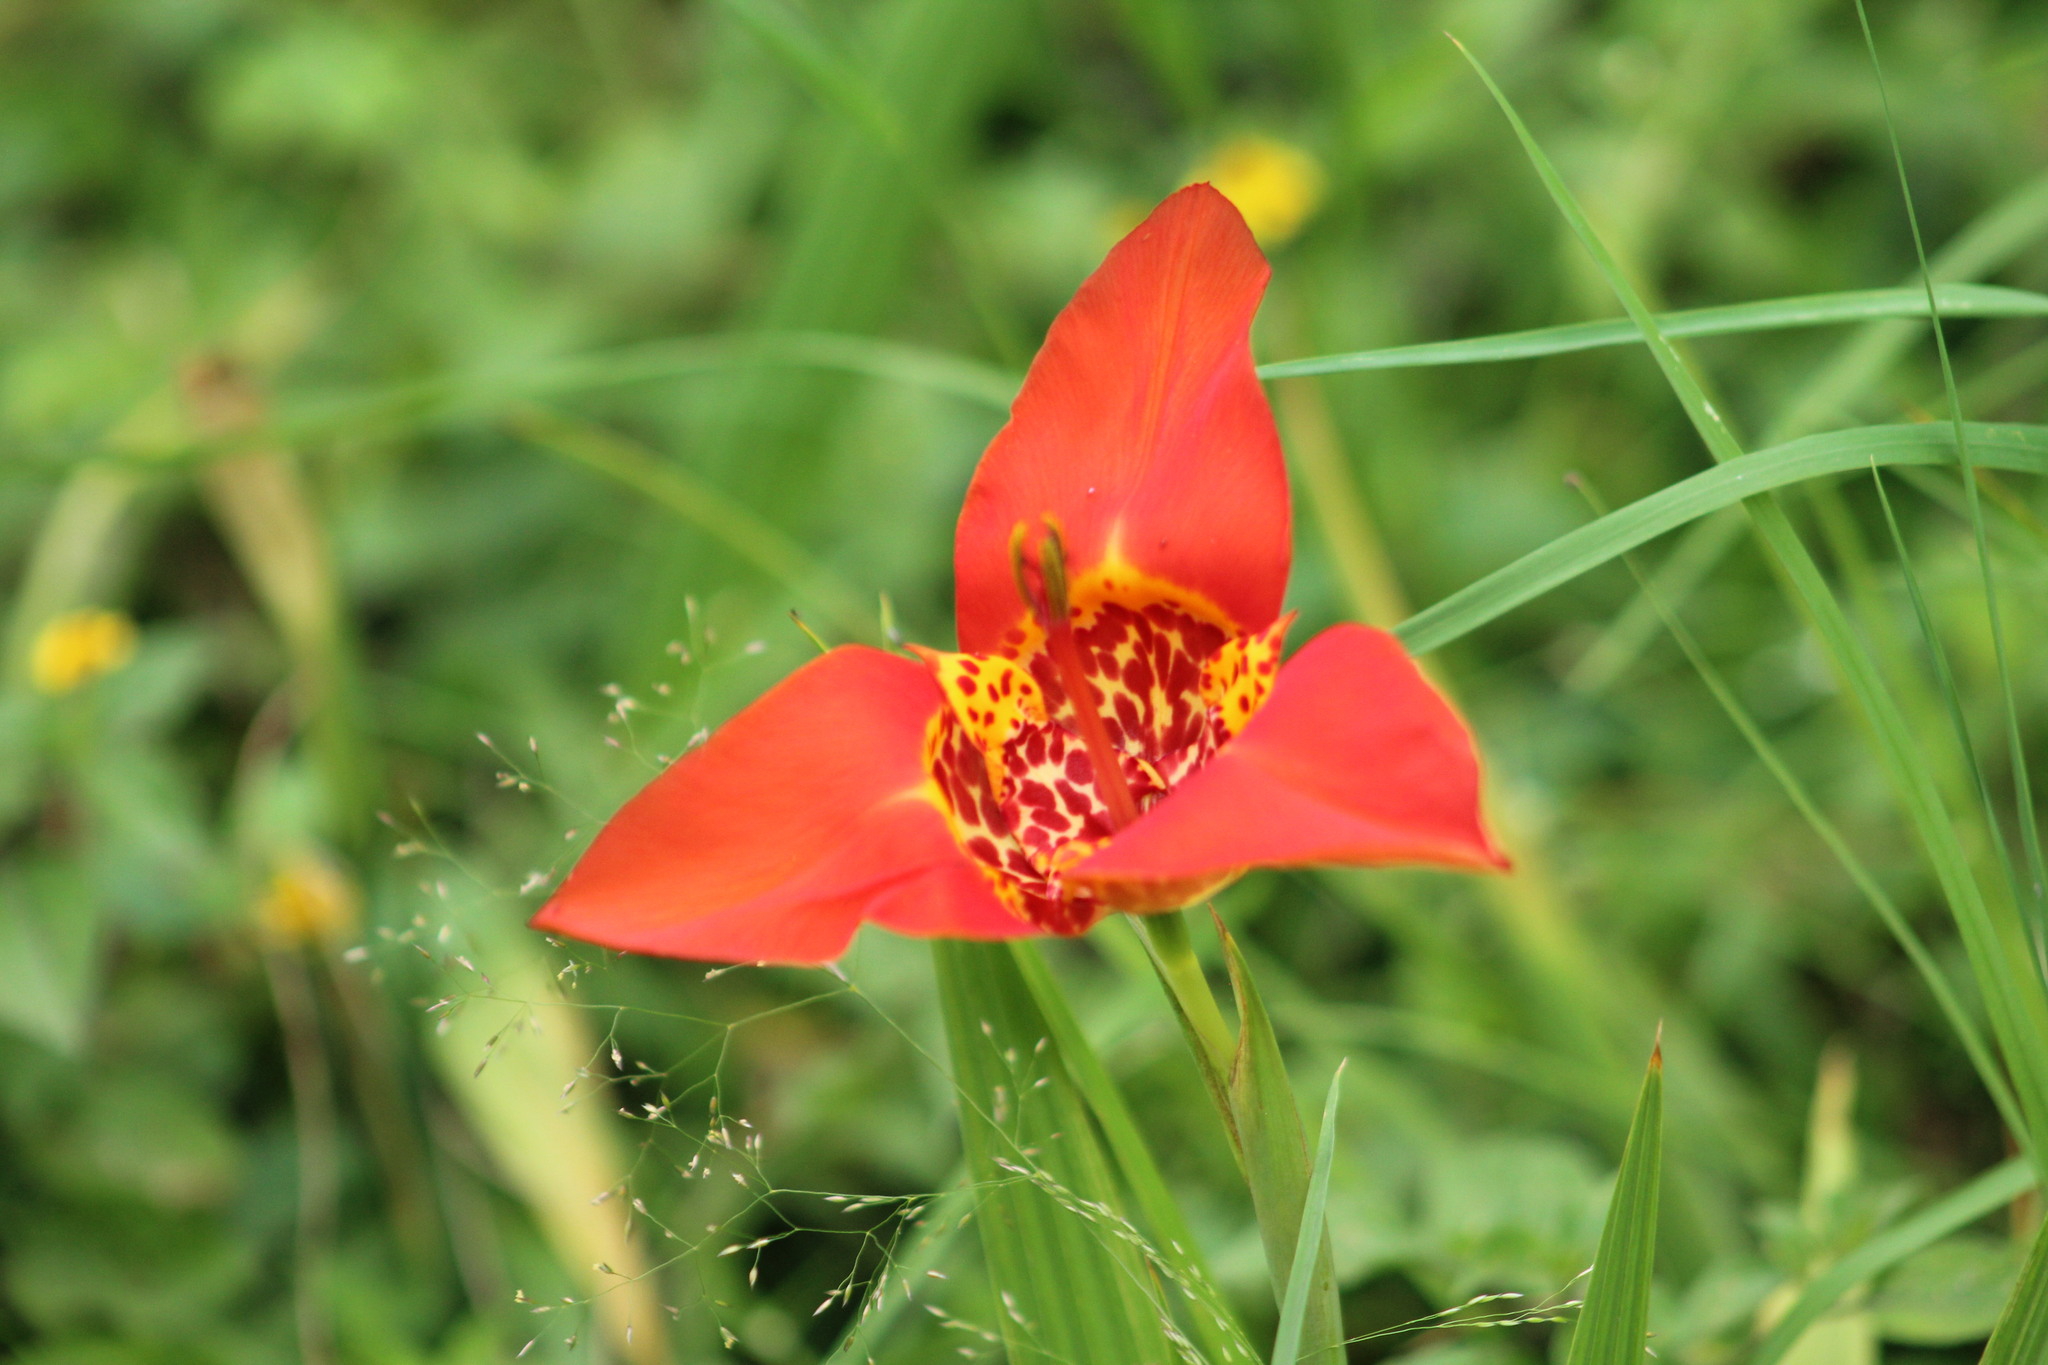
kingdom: Plantae
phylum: Tracheophyta
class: Liliopsida
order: Asparagales
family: Iridaceae
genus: Tigridia
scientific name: Tigridia pavonia
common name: Peacock-flower
